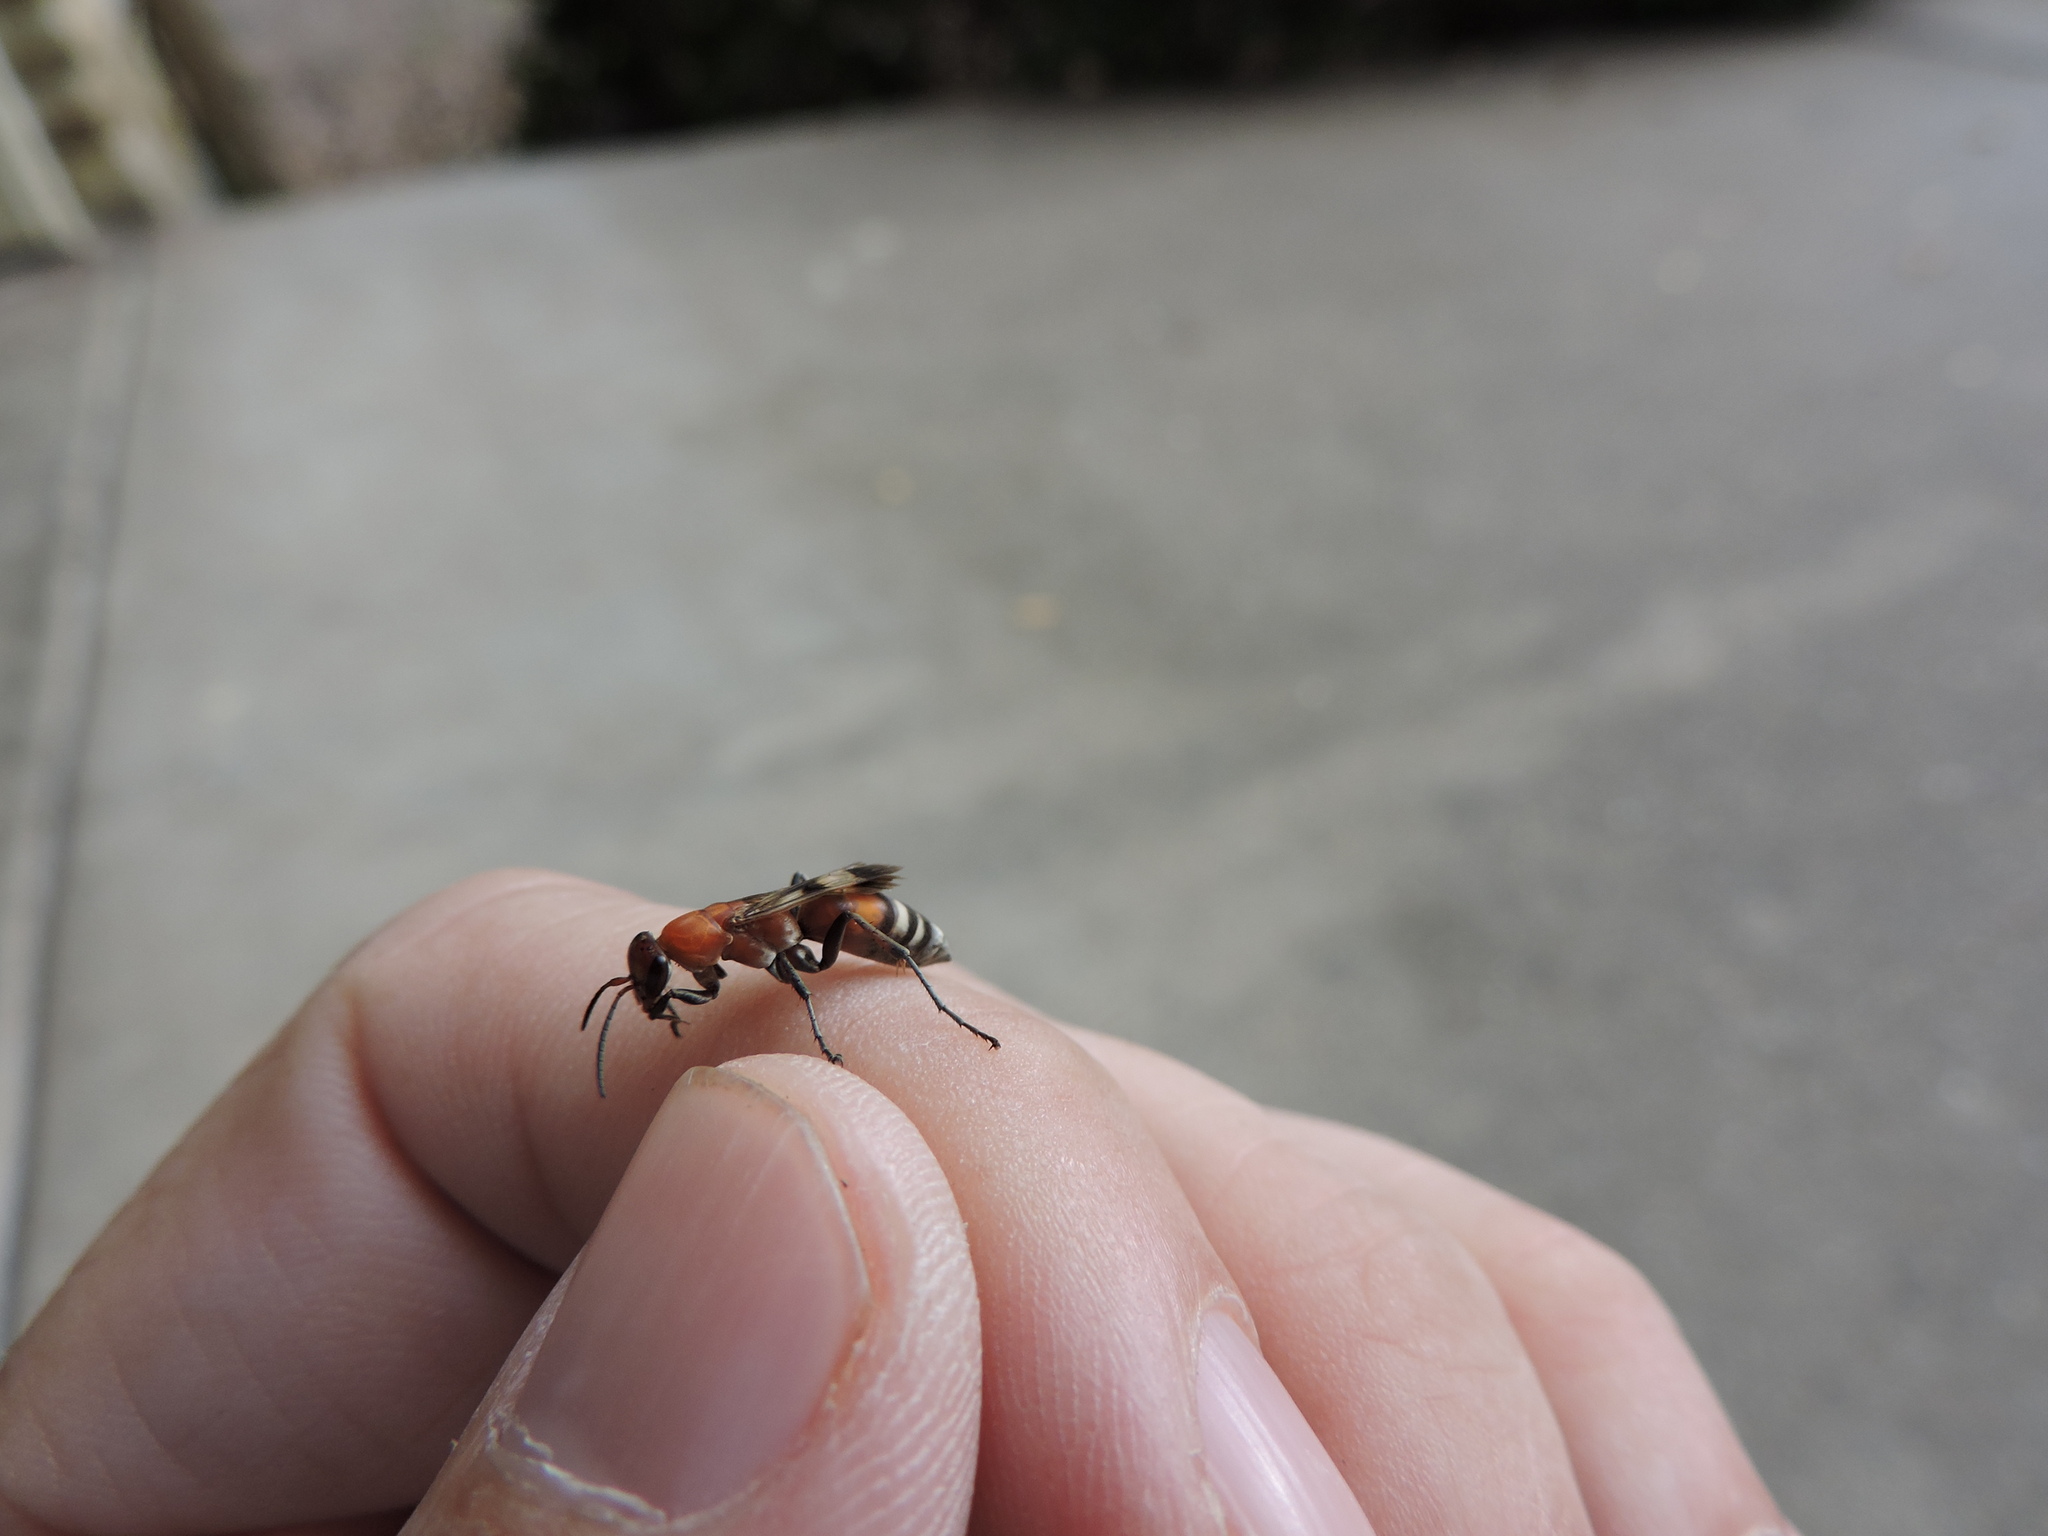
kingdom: Animalia
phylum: Arthropoda
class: Insecta
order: Hymenoptera
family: Pompilidae
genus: Psorthaspis
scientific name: Psorthaspis legata
